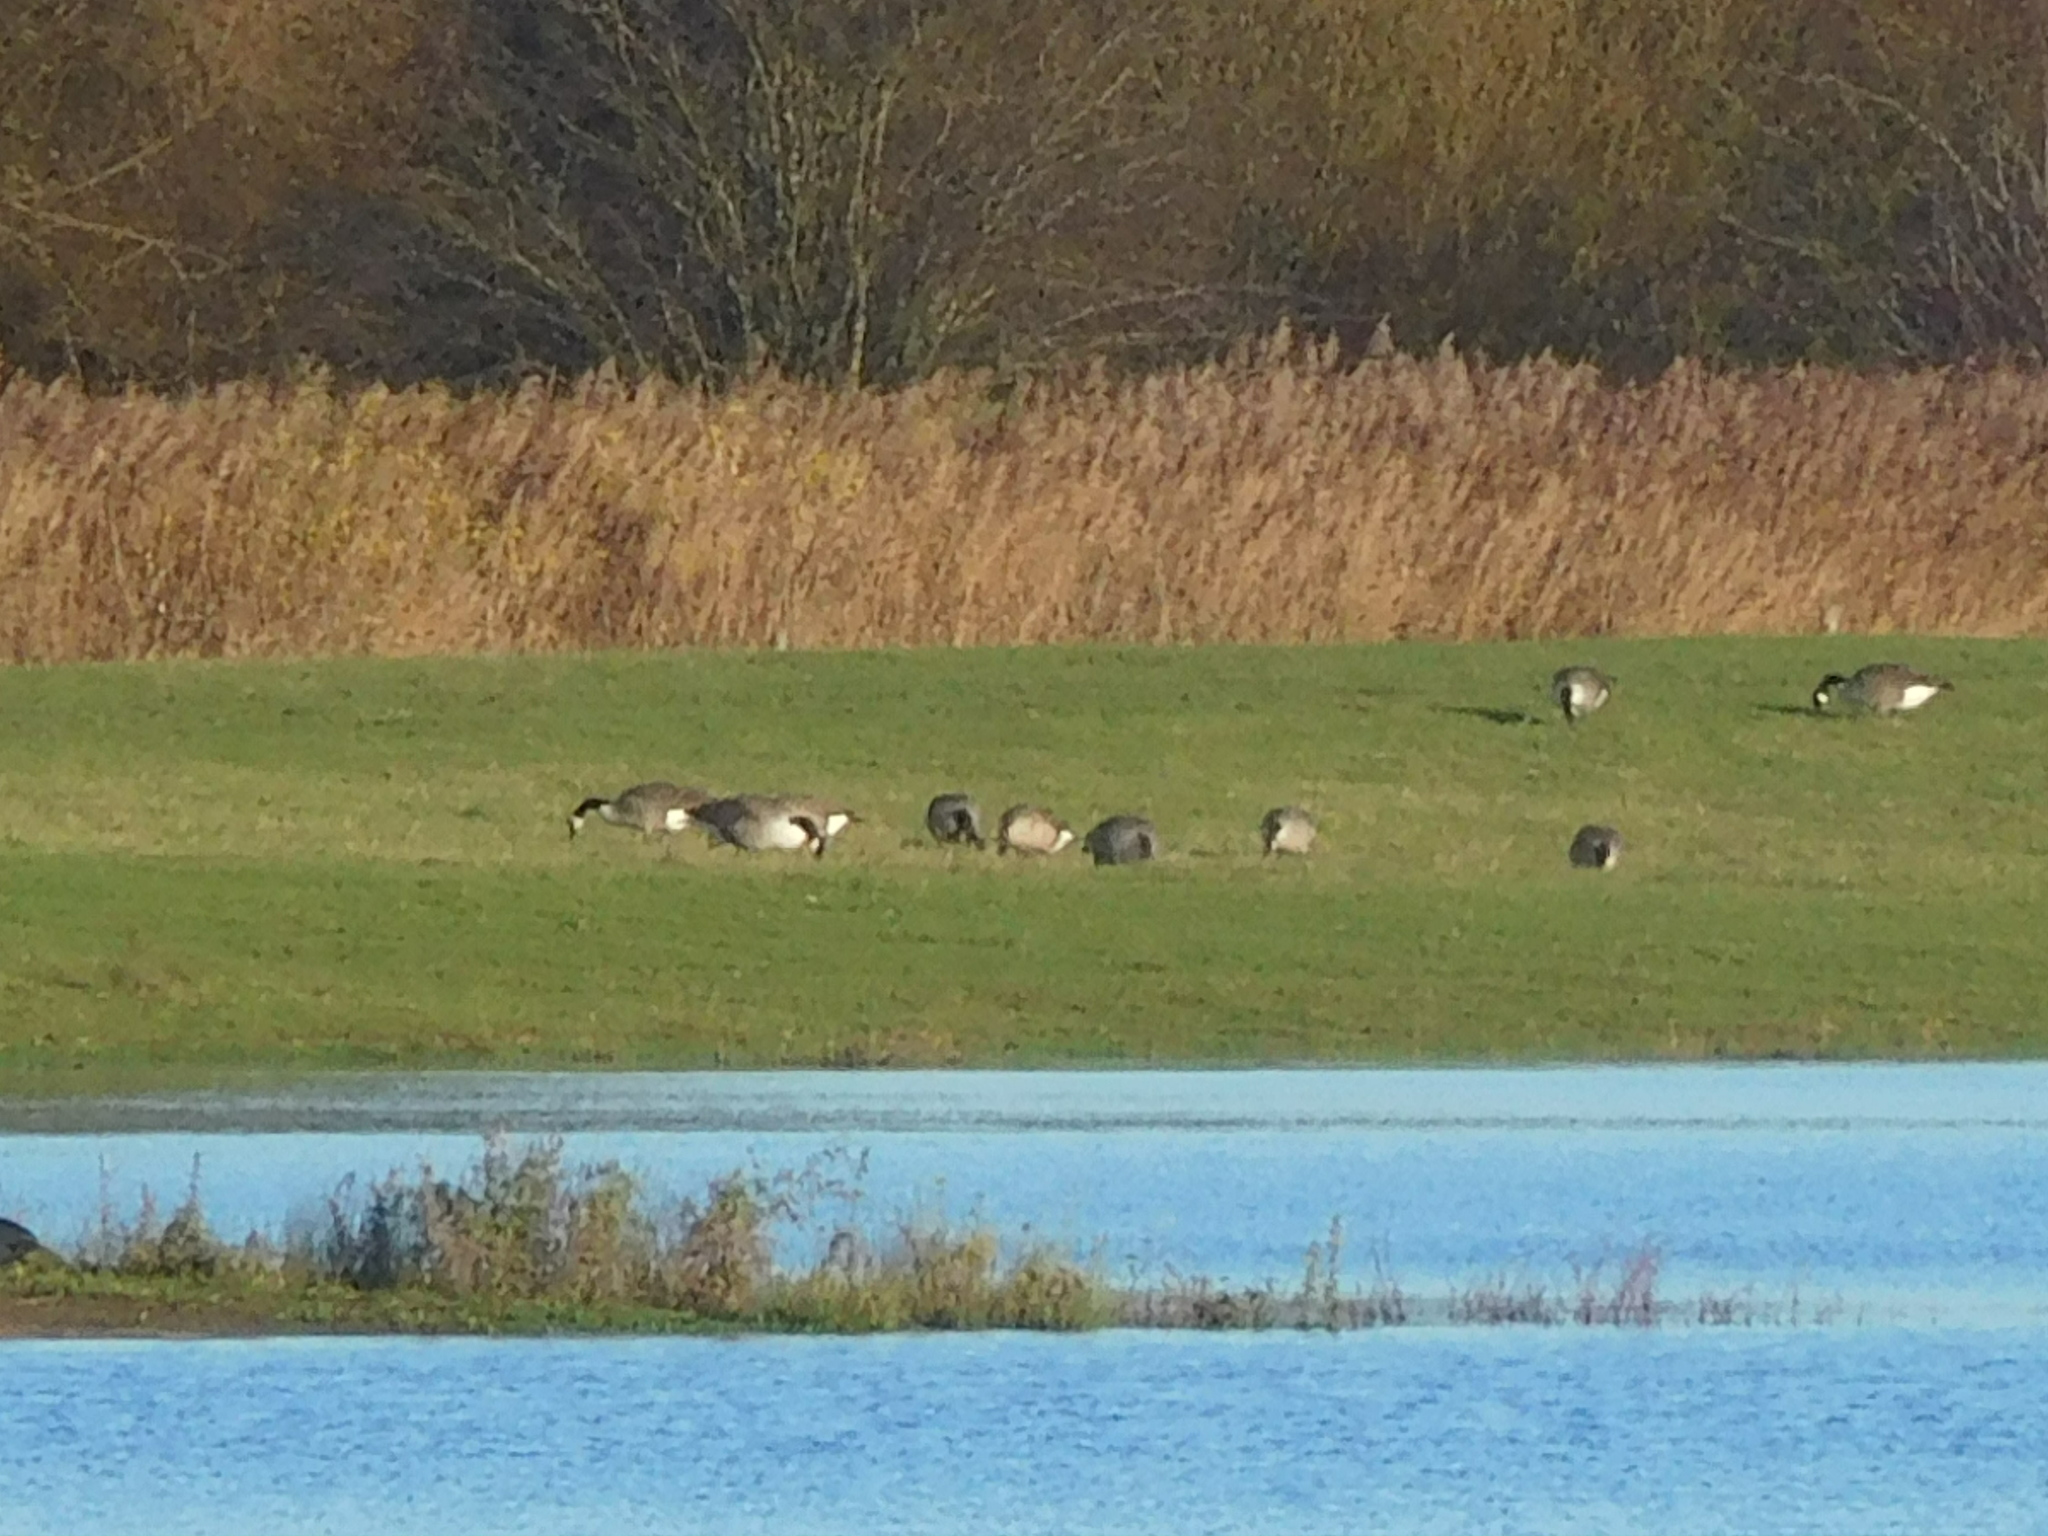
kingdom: Animalia
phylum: Chordata
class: Aves
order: Anseriformes
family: Anatidae
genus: Branta
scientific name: Branta canadensis
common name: Canada goose
